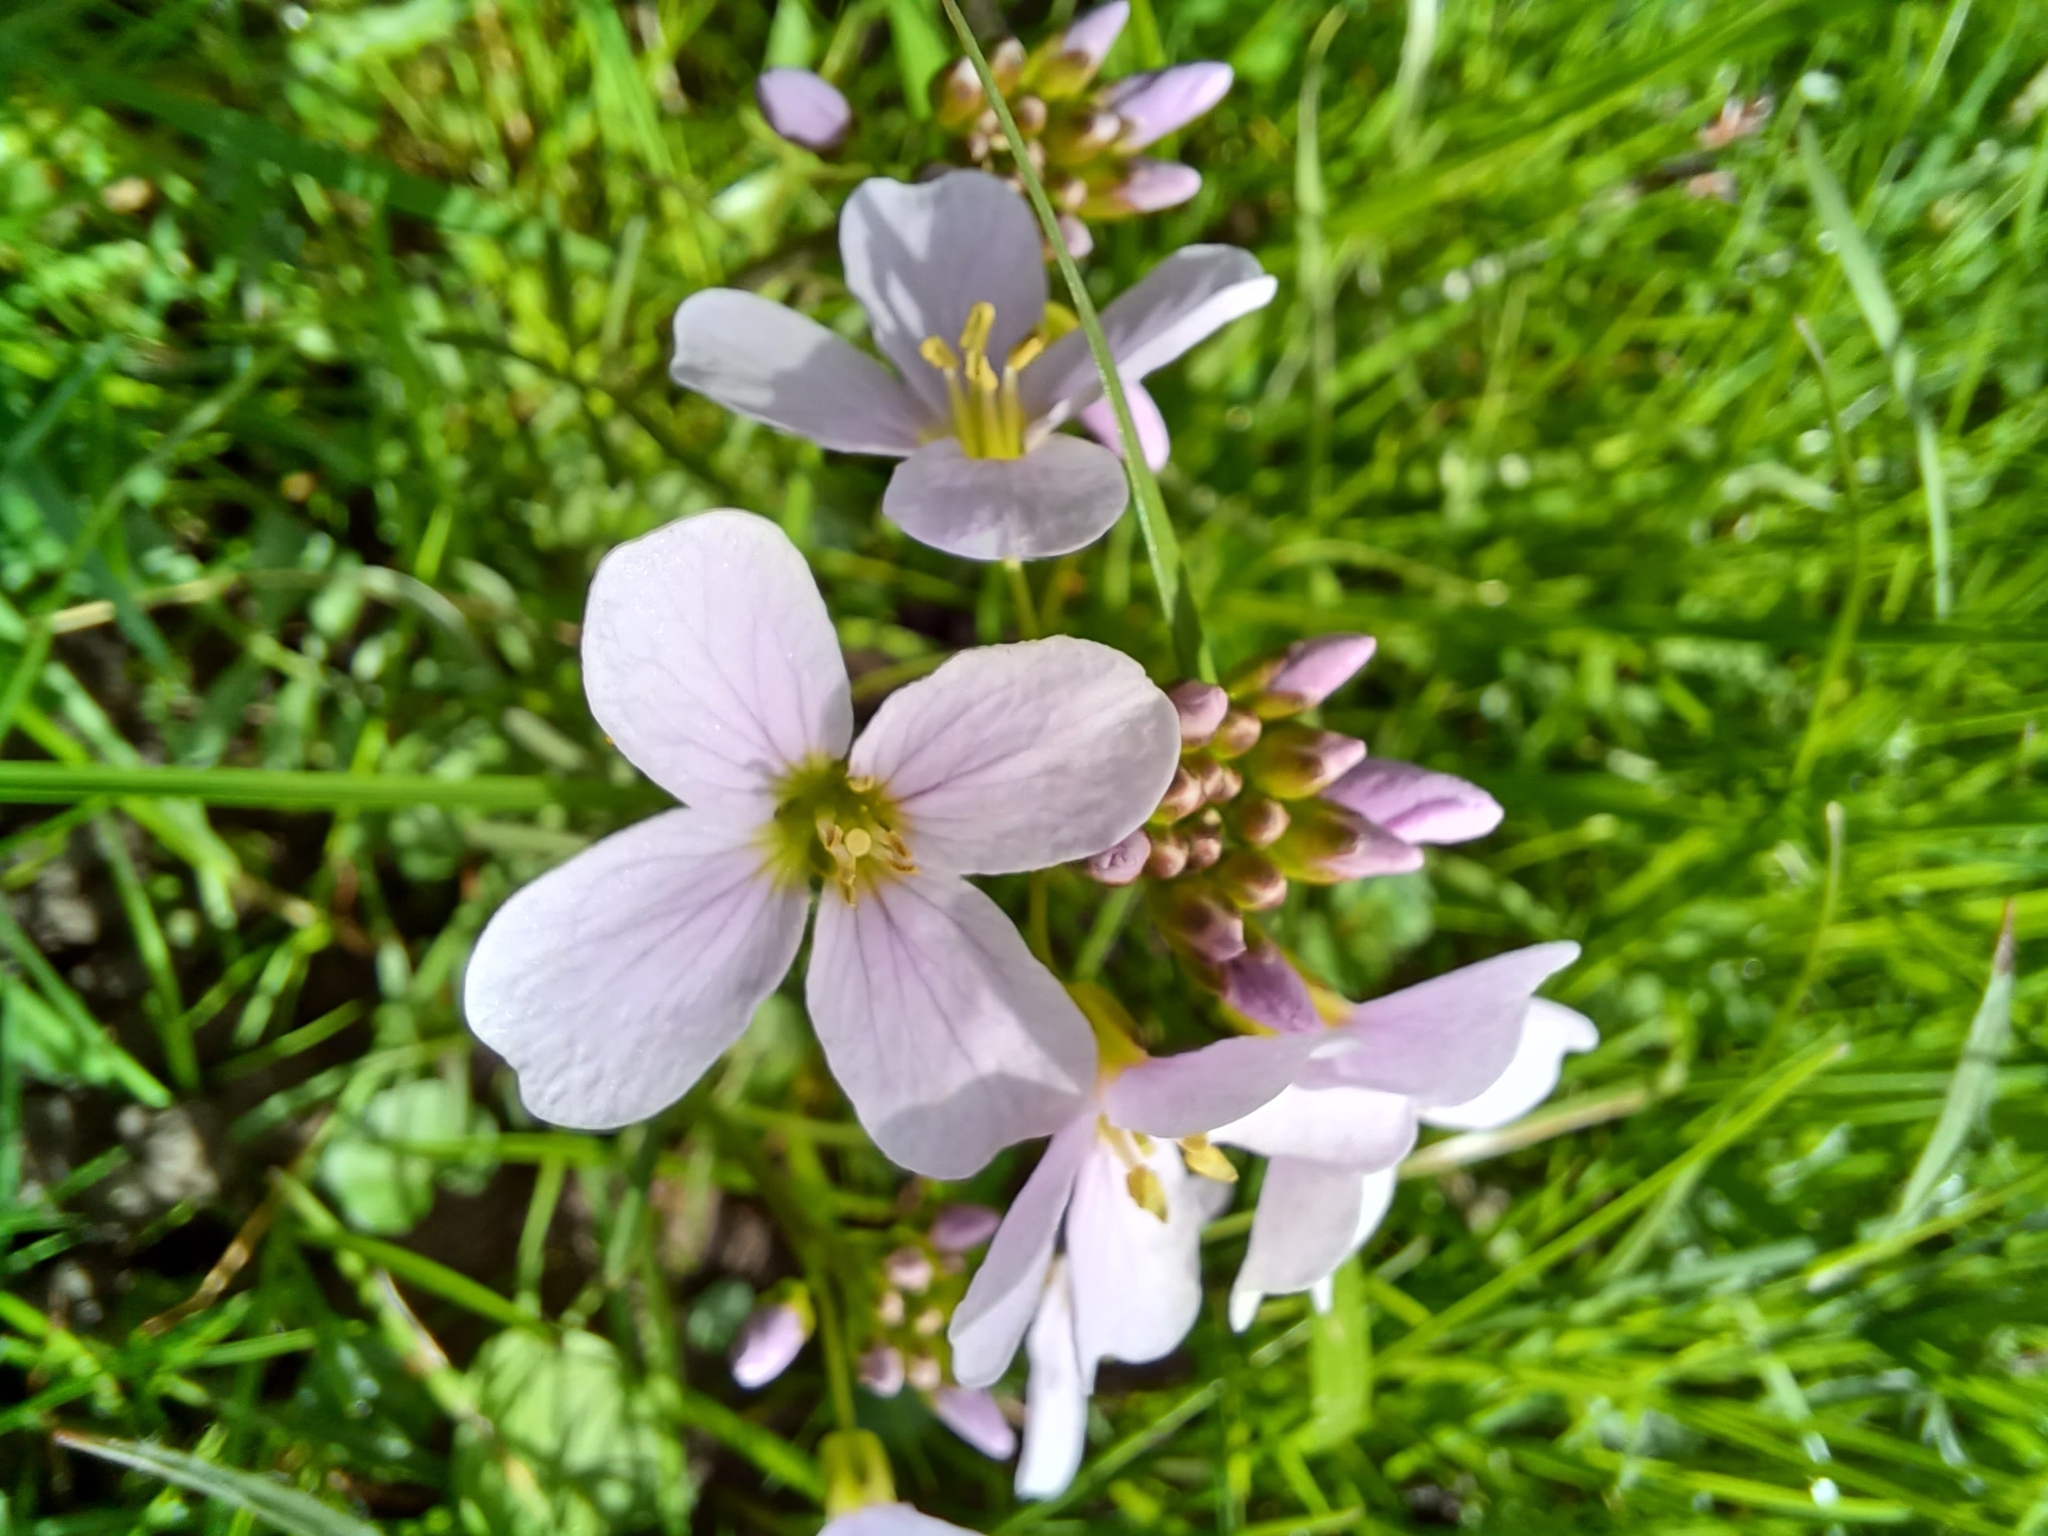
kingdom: Plantae
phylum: Tracheophyta
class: Magnoliopsida
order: Brassicales
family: Brassicaceae
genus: Cardamine
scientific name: Cardamine pratensis
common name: Cuckoo flower
